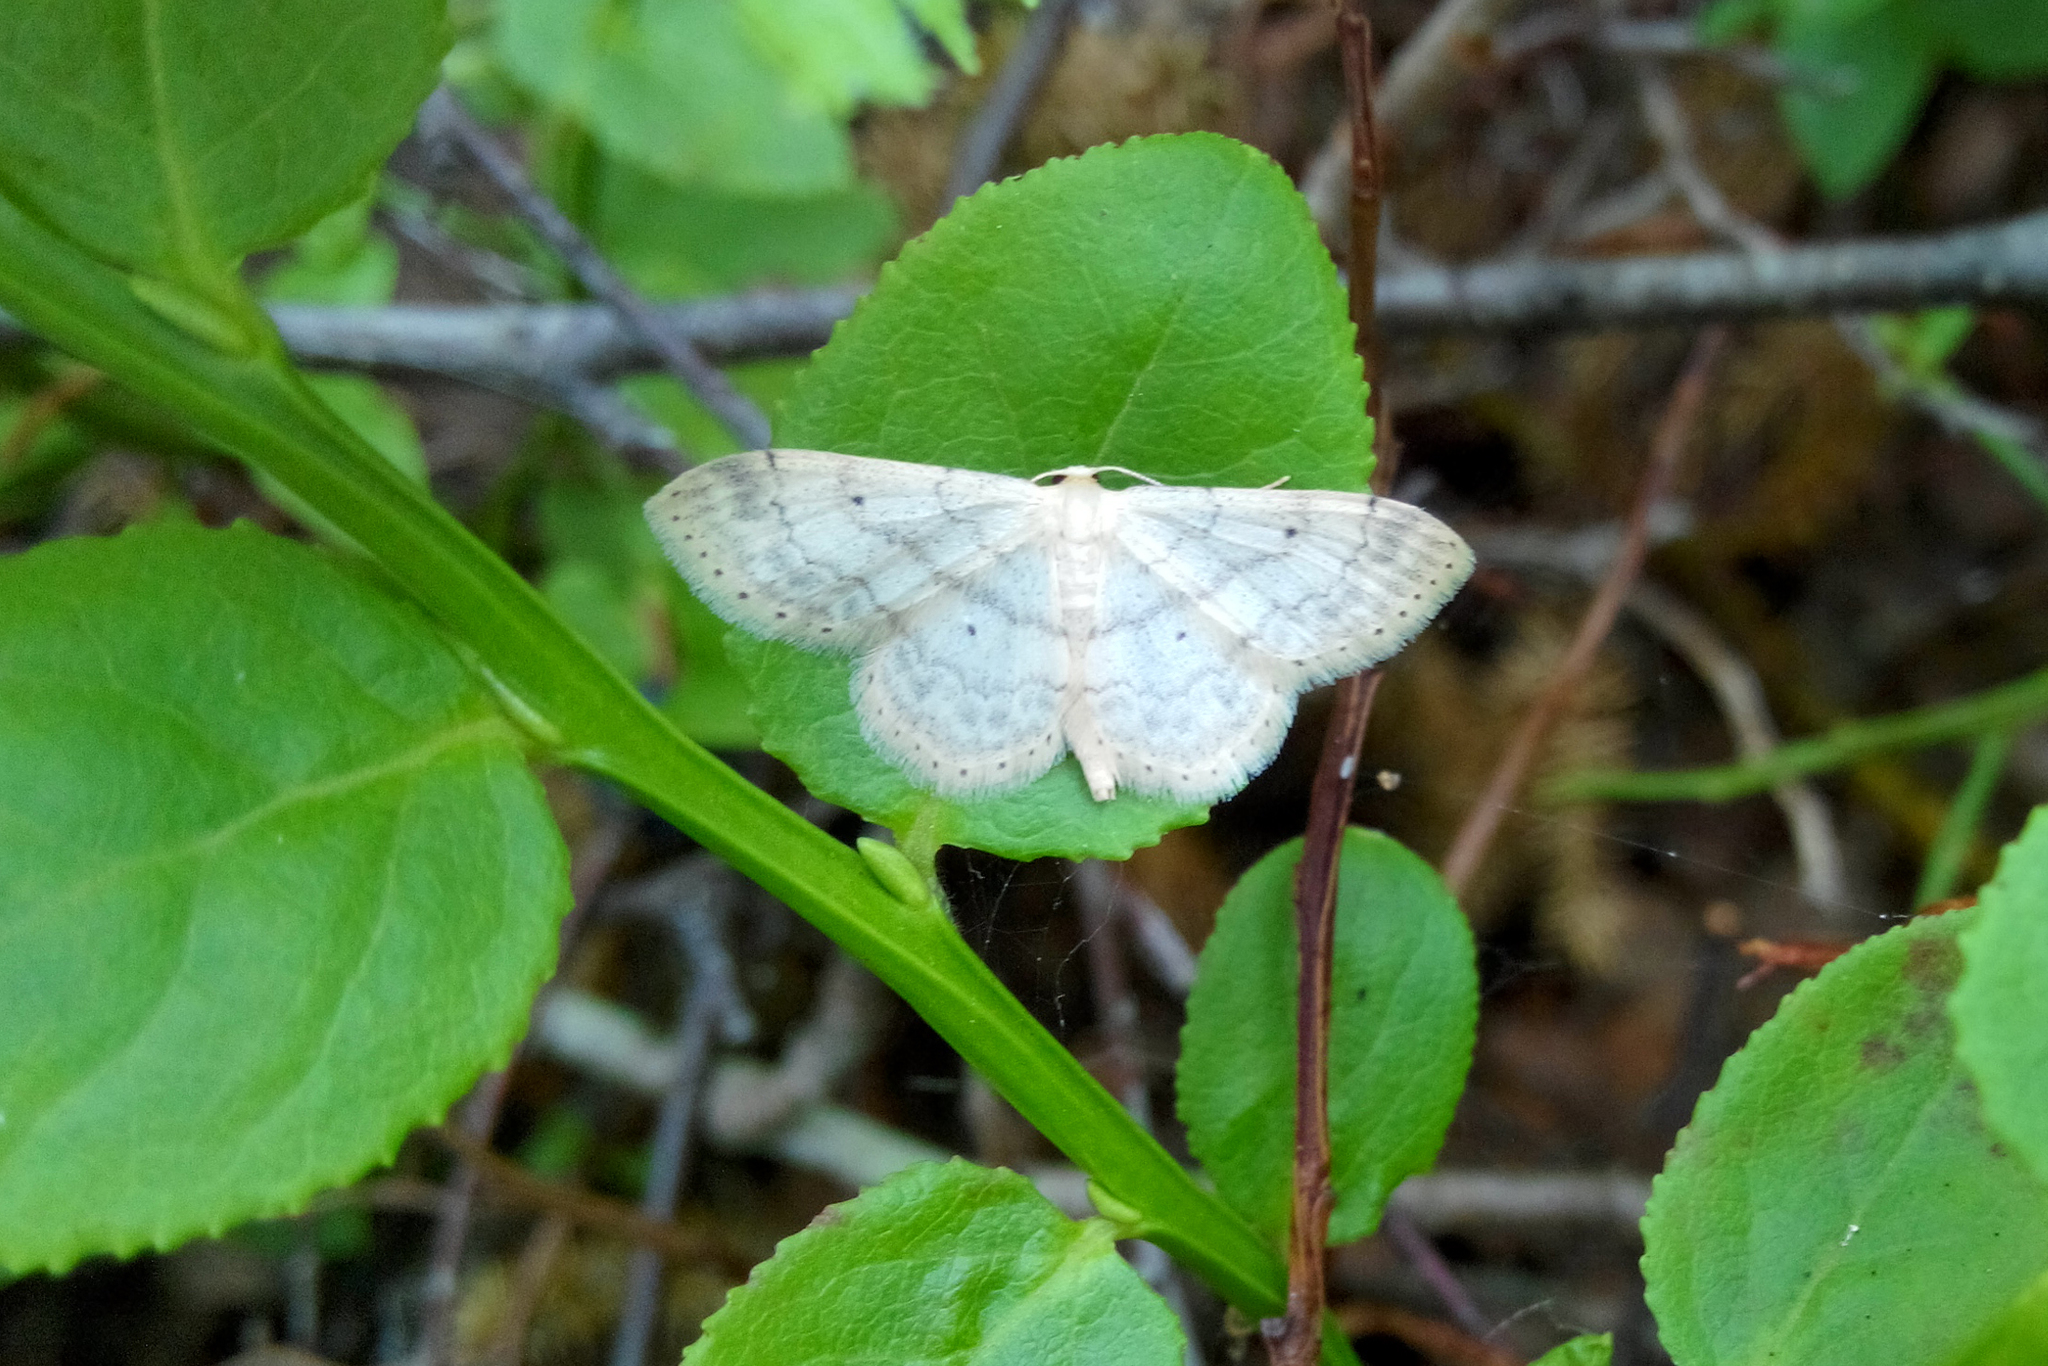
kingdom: Animalia
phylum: Arthropoda
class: Insecta
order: Lepidoptera
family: Geometridae
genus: Idaea
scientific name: Idaea biselata
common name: Small fan-footed wave
